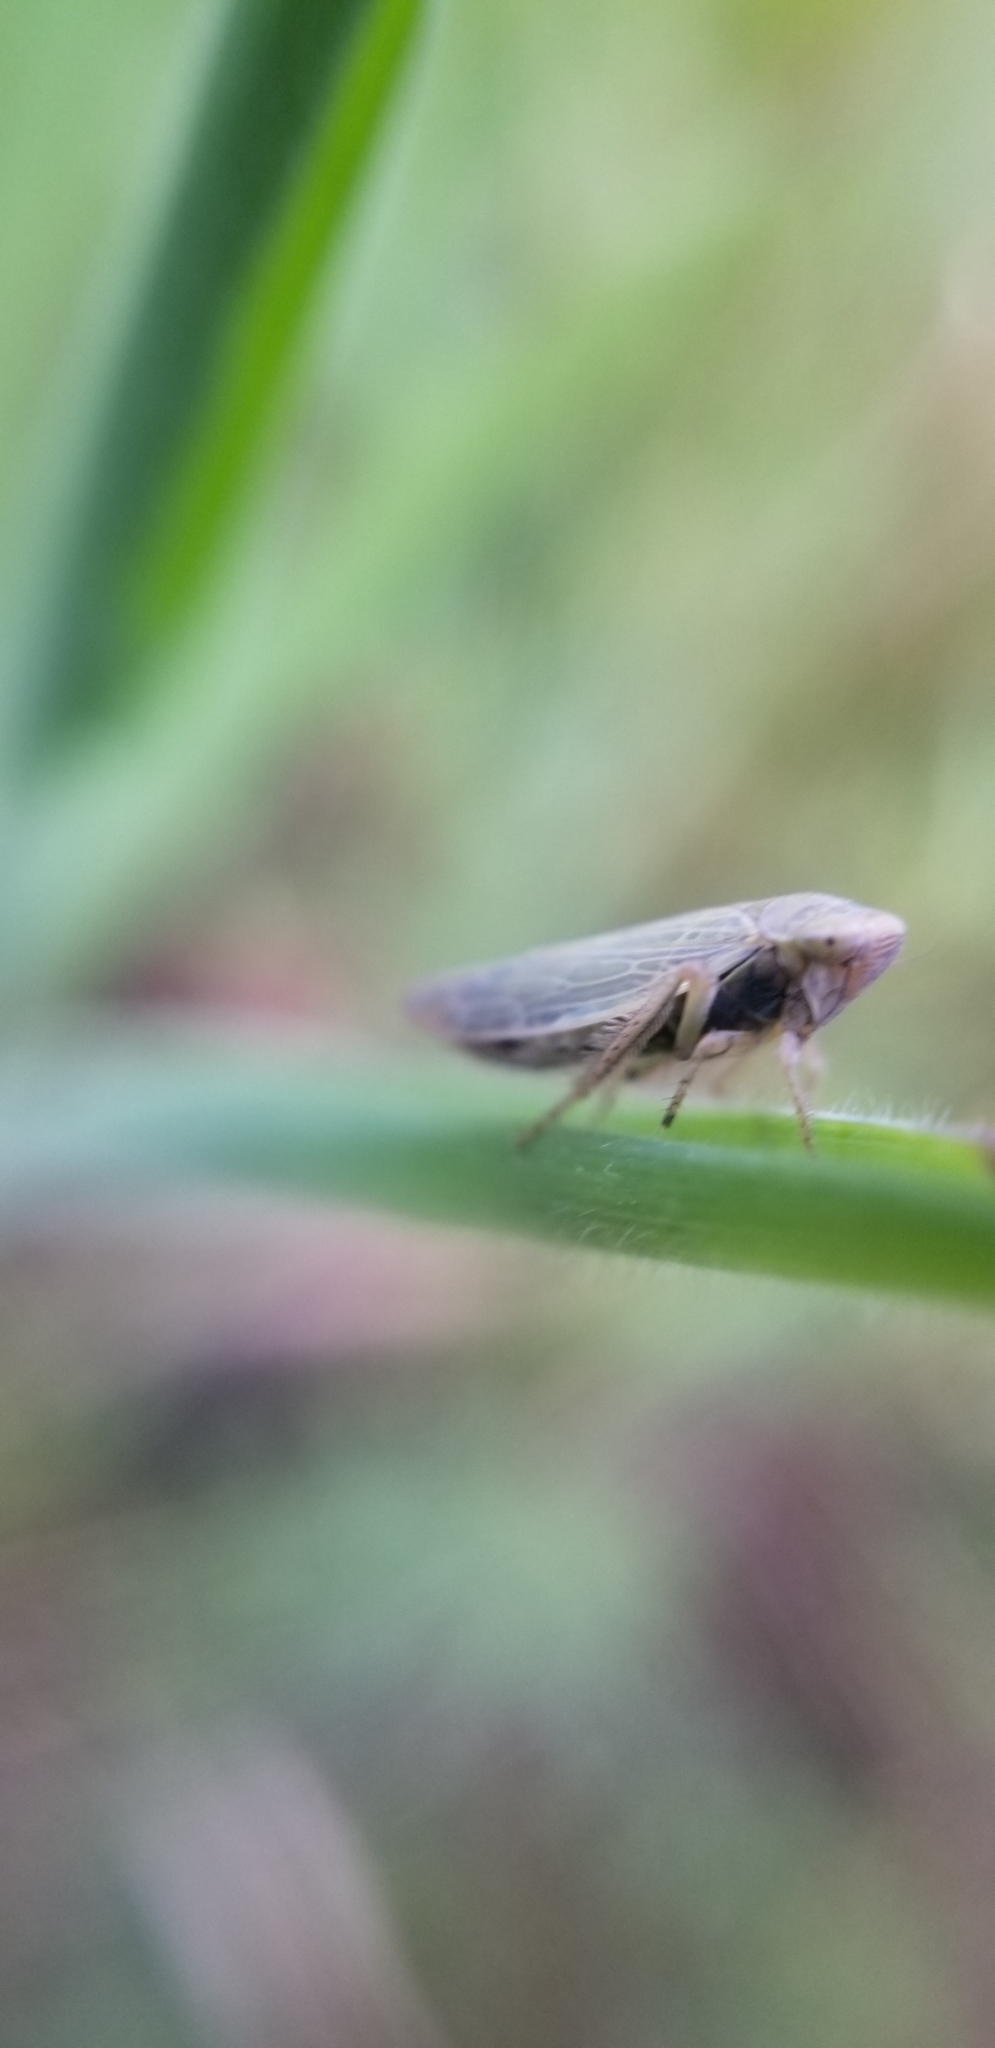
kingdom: Animalia
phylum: Arthropoda
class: Insecta
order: Hemiptera
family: Cicadellidae
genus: Thamnotettix
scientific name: Thamnotettix zelleri
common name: Leafhopper
